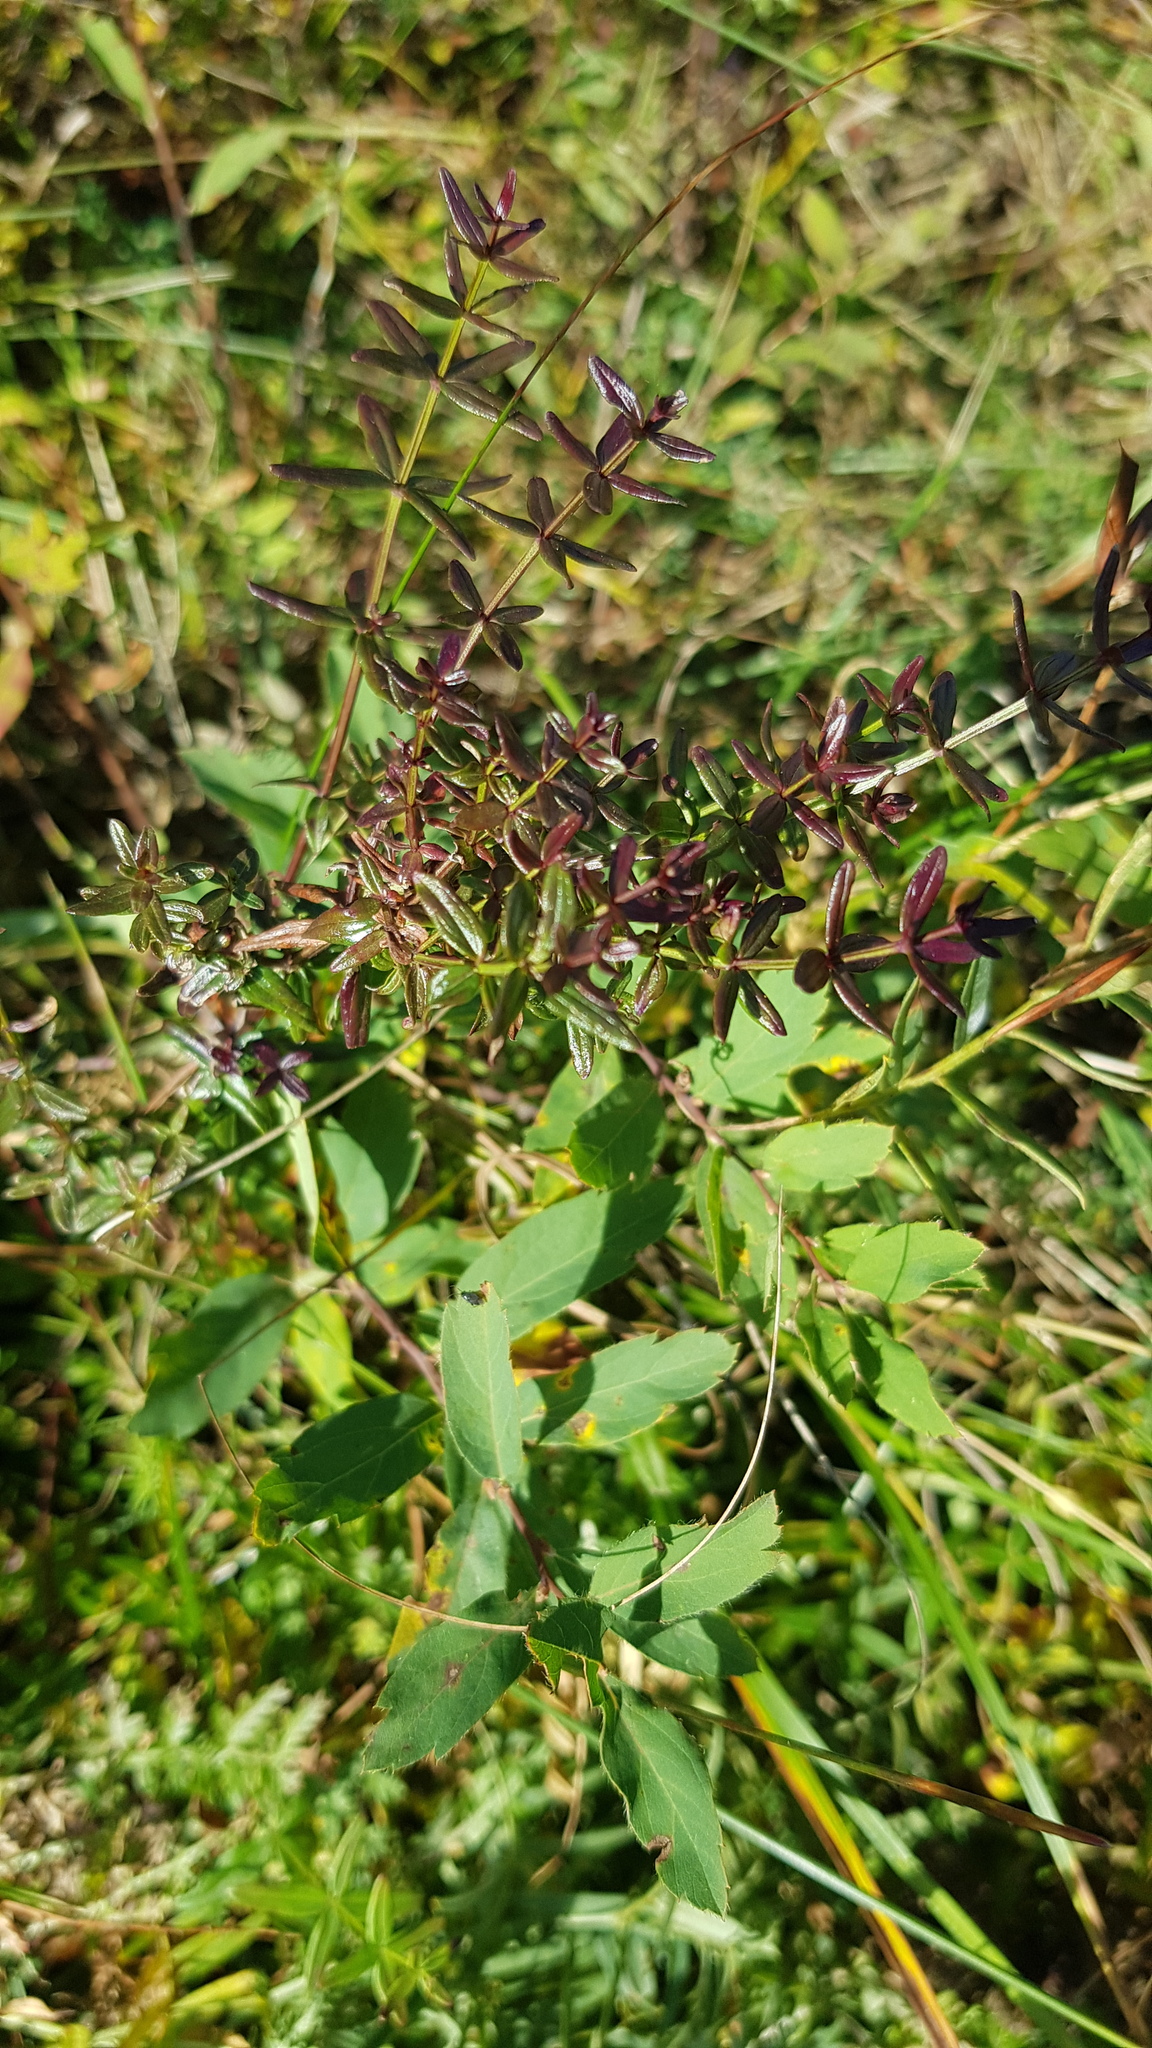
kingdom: Plantae
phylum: Tracheophyta
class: Magnoliopsida
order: Rosales
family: Rosaceae
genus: Spiraea
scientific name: Spiraea media
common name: Russian spiraea
